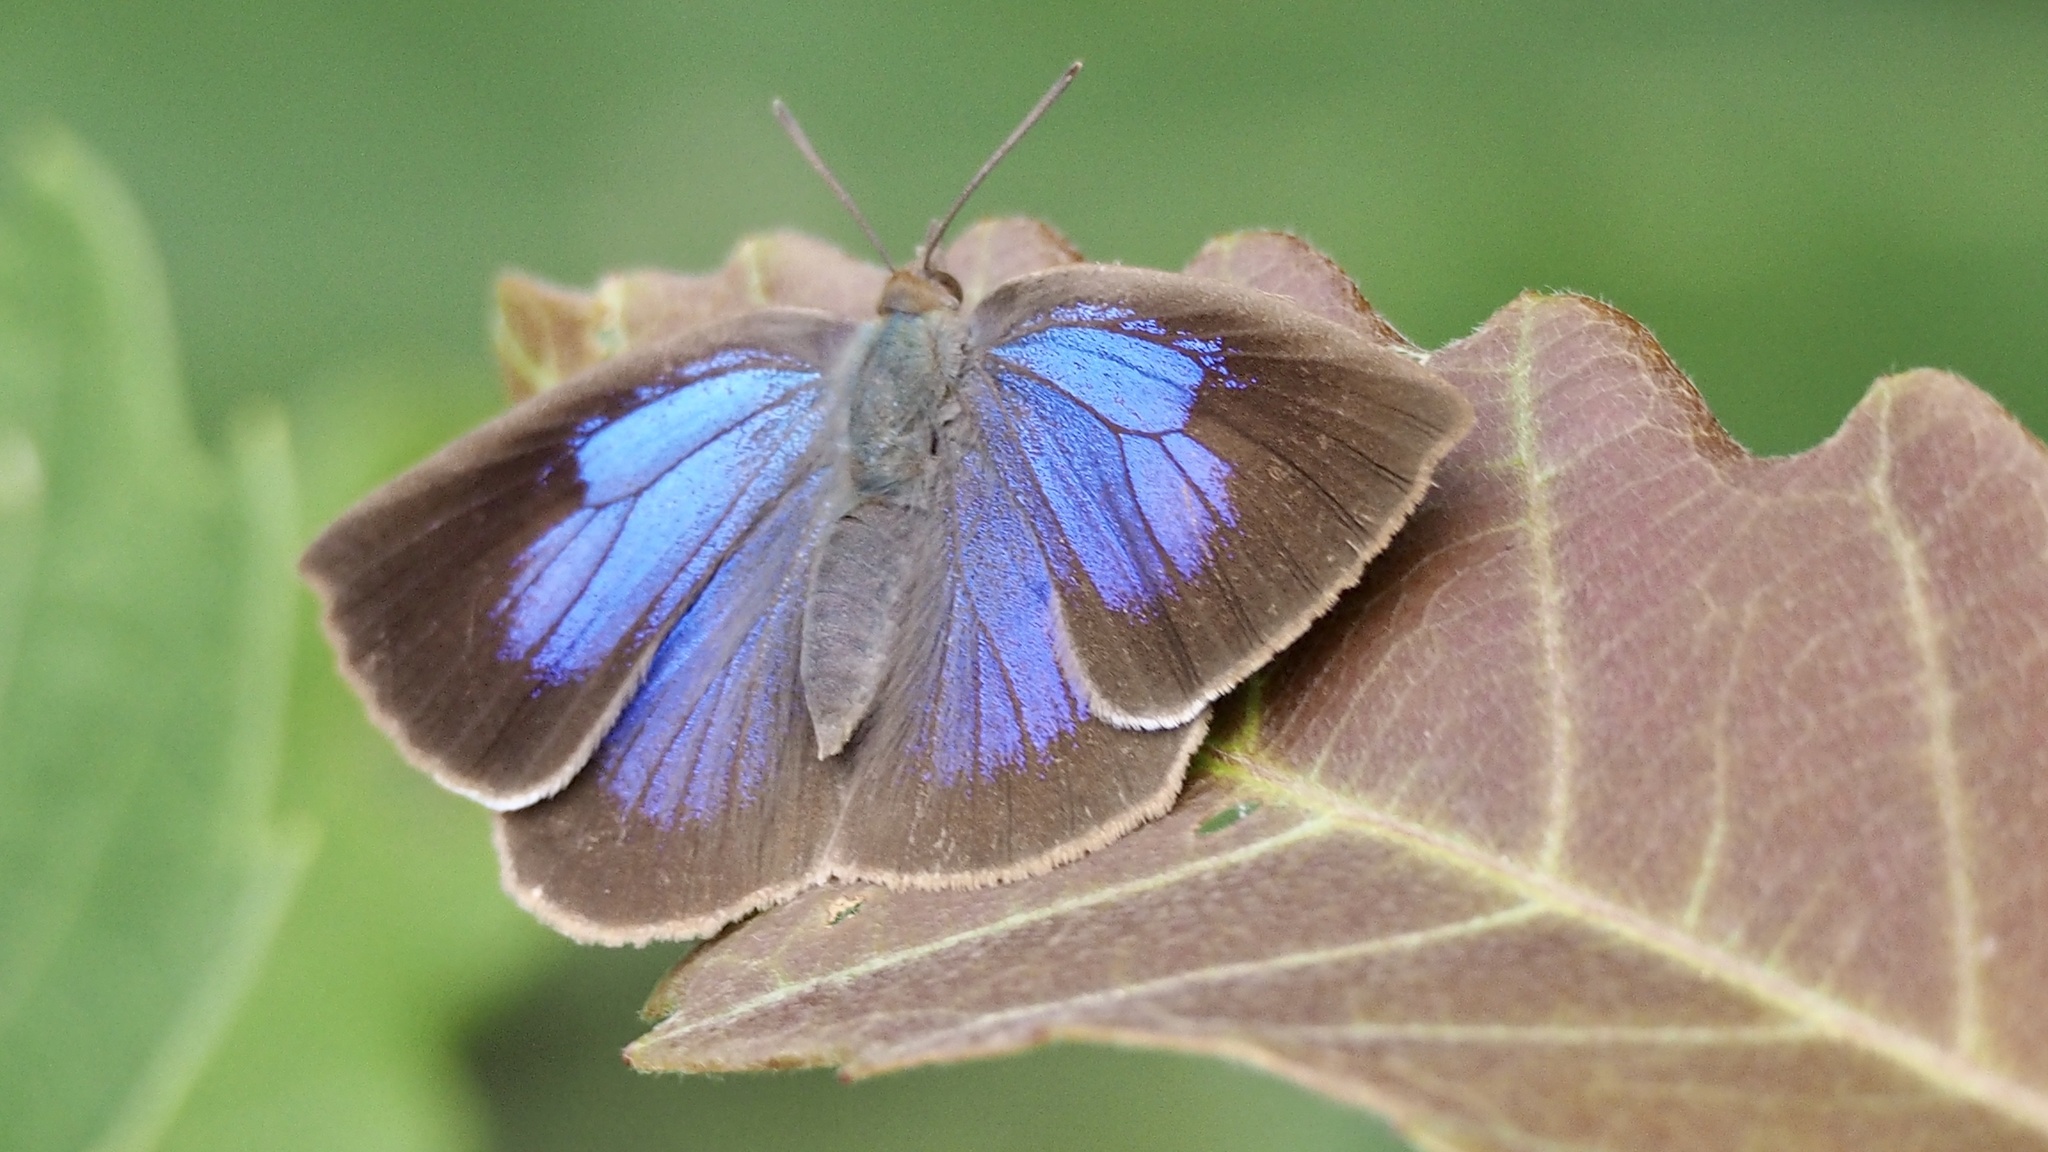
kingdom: Animalia
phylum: Arthropoda
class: Insecta
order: Lepidoptera
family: Lycaenidae
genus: Arhopala
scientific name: Arhopala japonica
